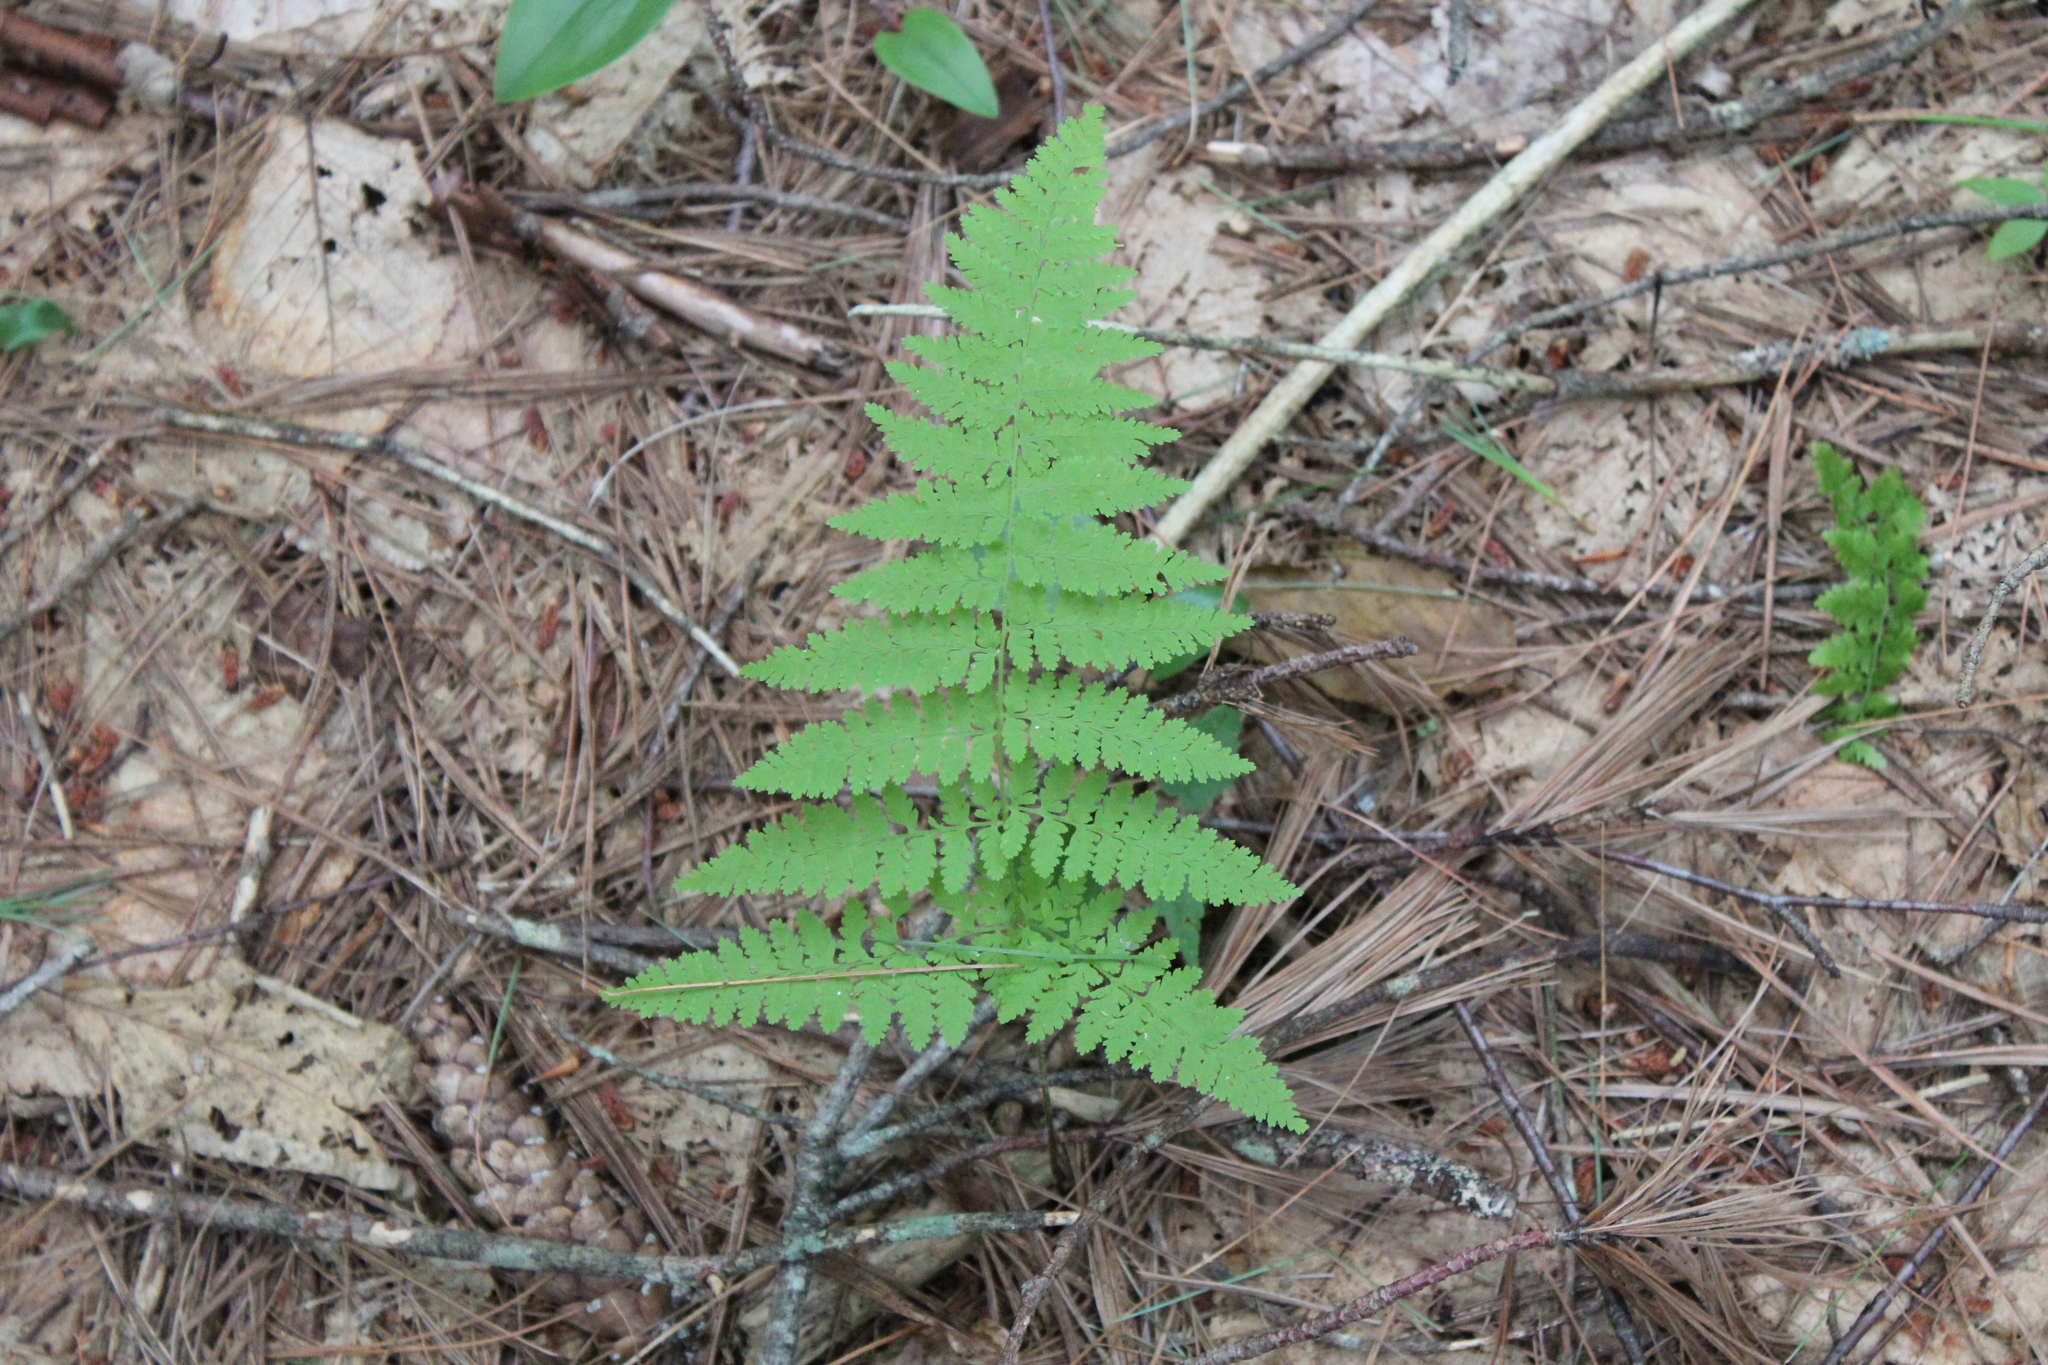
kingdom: Plantae
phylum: Tracheophyta
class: Polypodiopsida
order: Polypodiales
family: Dennstaedtiaceae
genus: Sitobolium
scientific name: Sitobolium punctilobum
